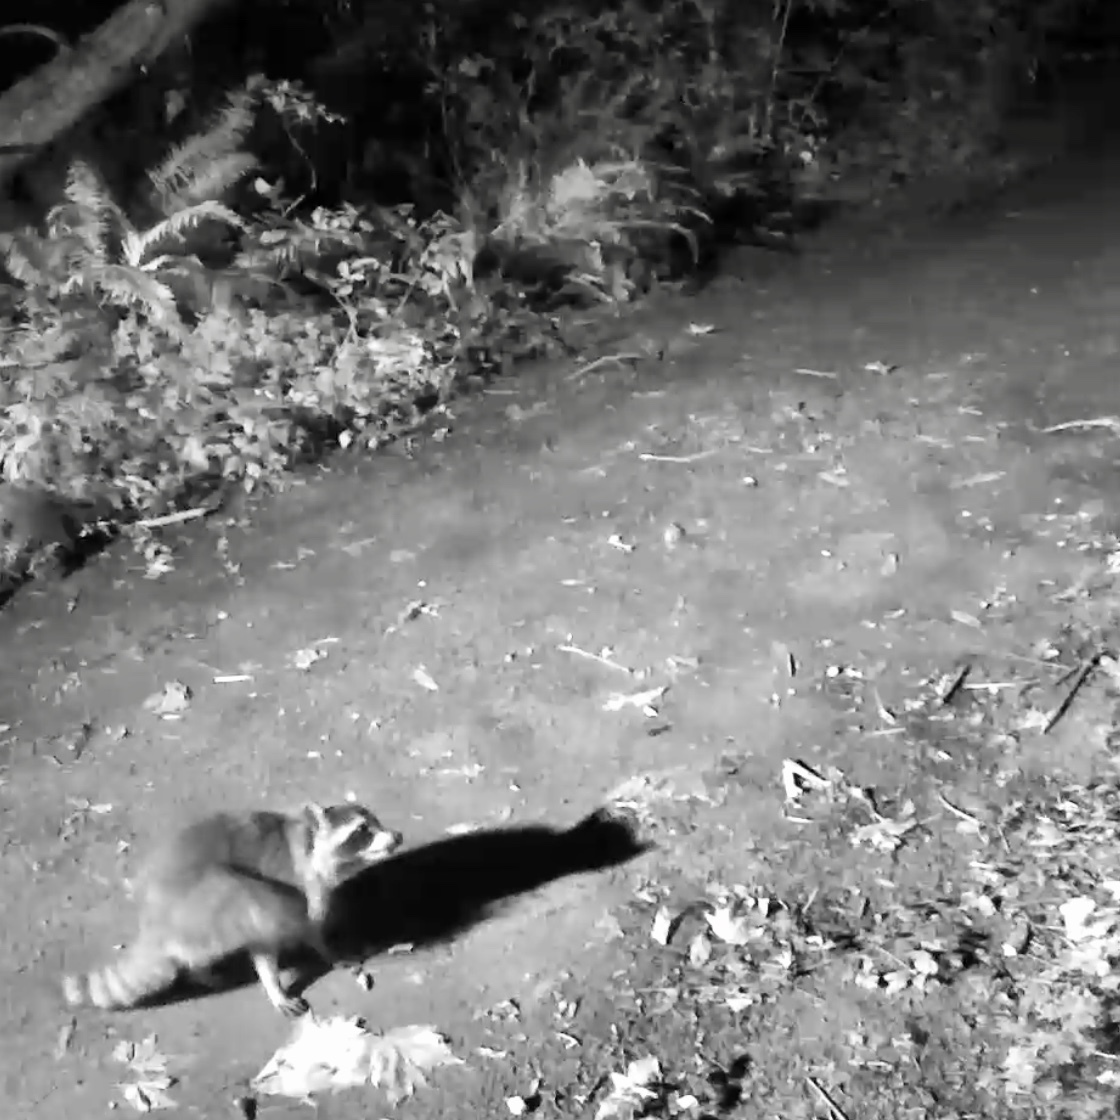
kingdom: Animalia
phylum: Chordata
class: Mammalia
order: Carnivora
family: Procyonidae
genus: Procyon
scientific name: Procyon lotor
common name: Raccoon
